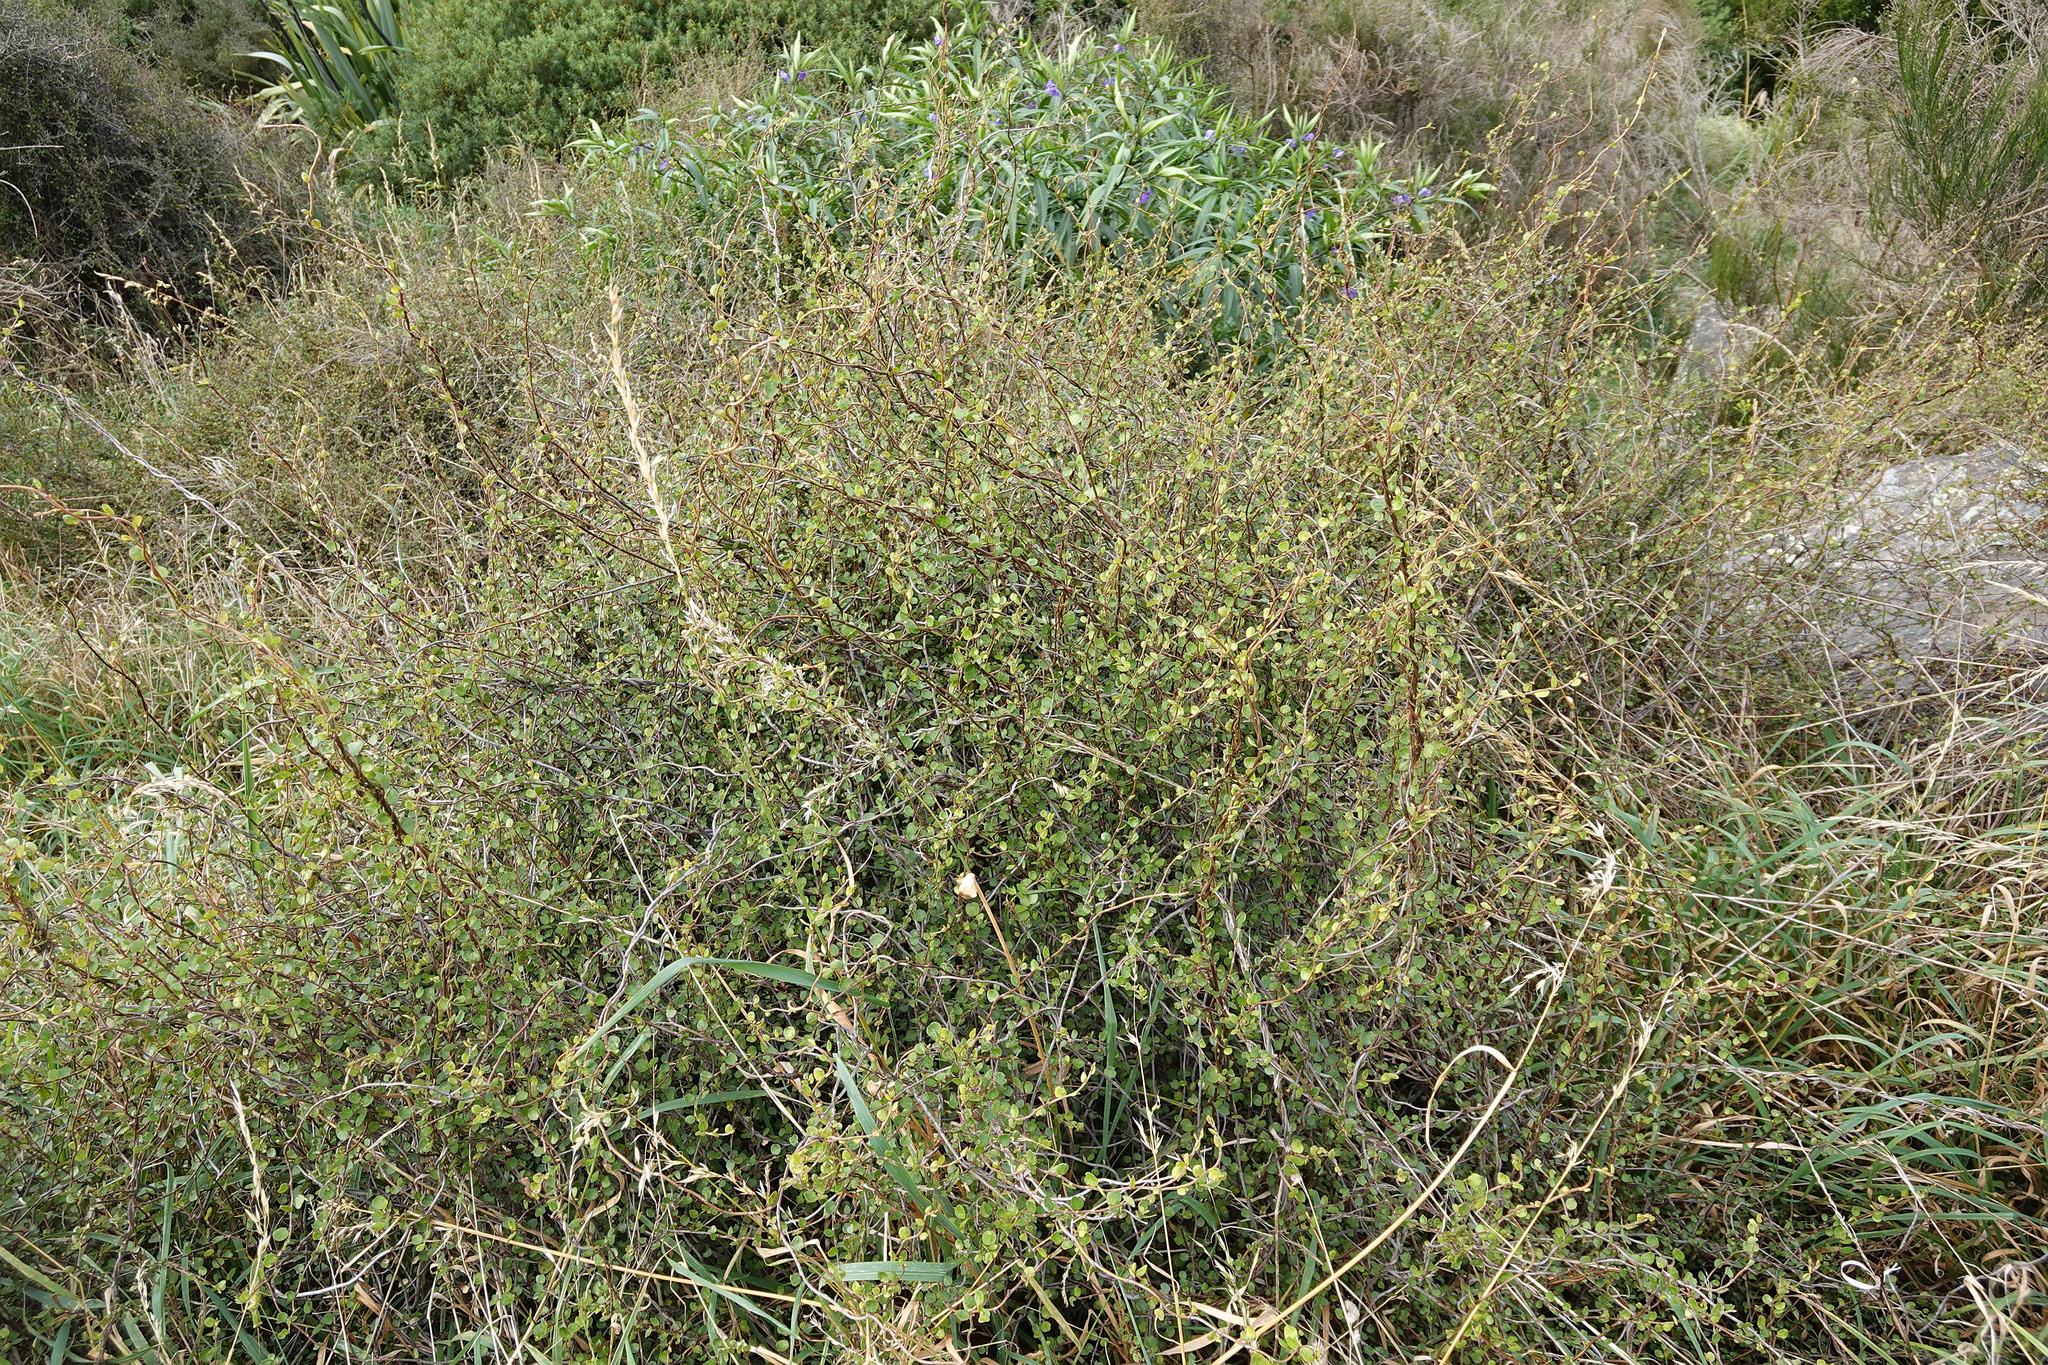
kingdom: Plantae
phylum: Tracheophyta
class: Magnoliopsida
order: Caryophyllales
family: Polygonaceae
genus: Muehlenbeckia
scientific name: Muehlenbeckia complexa
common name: Wireplant
